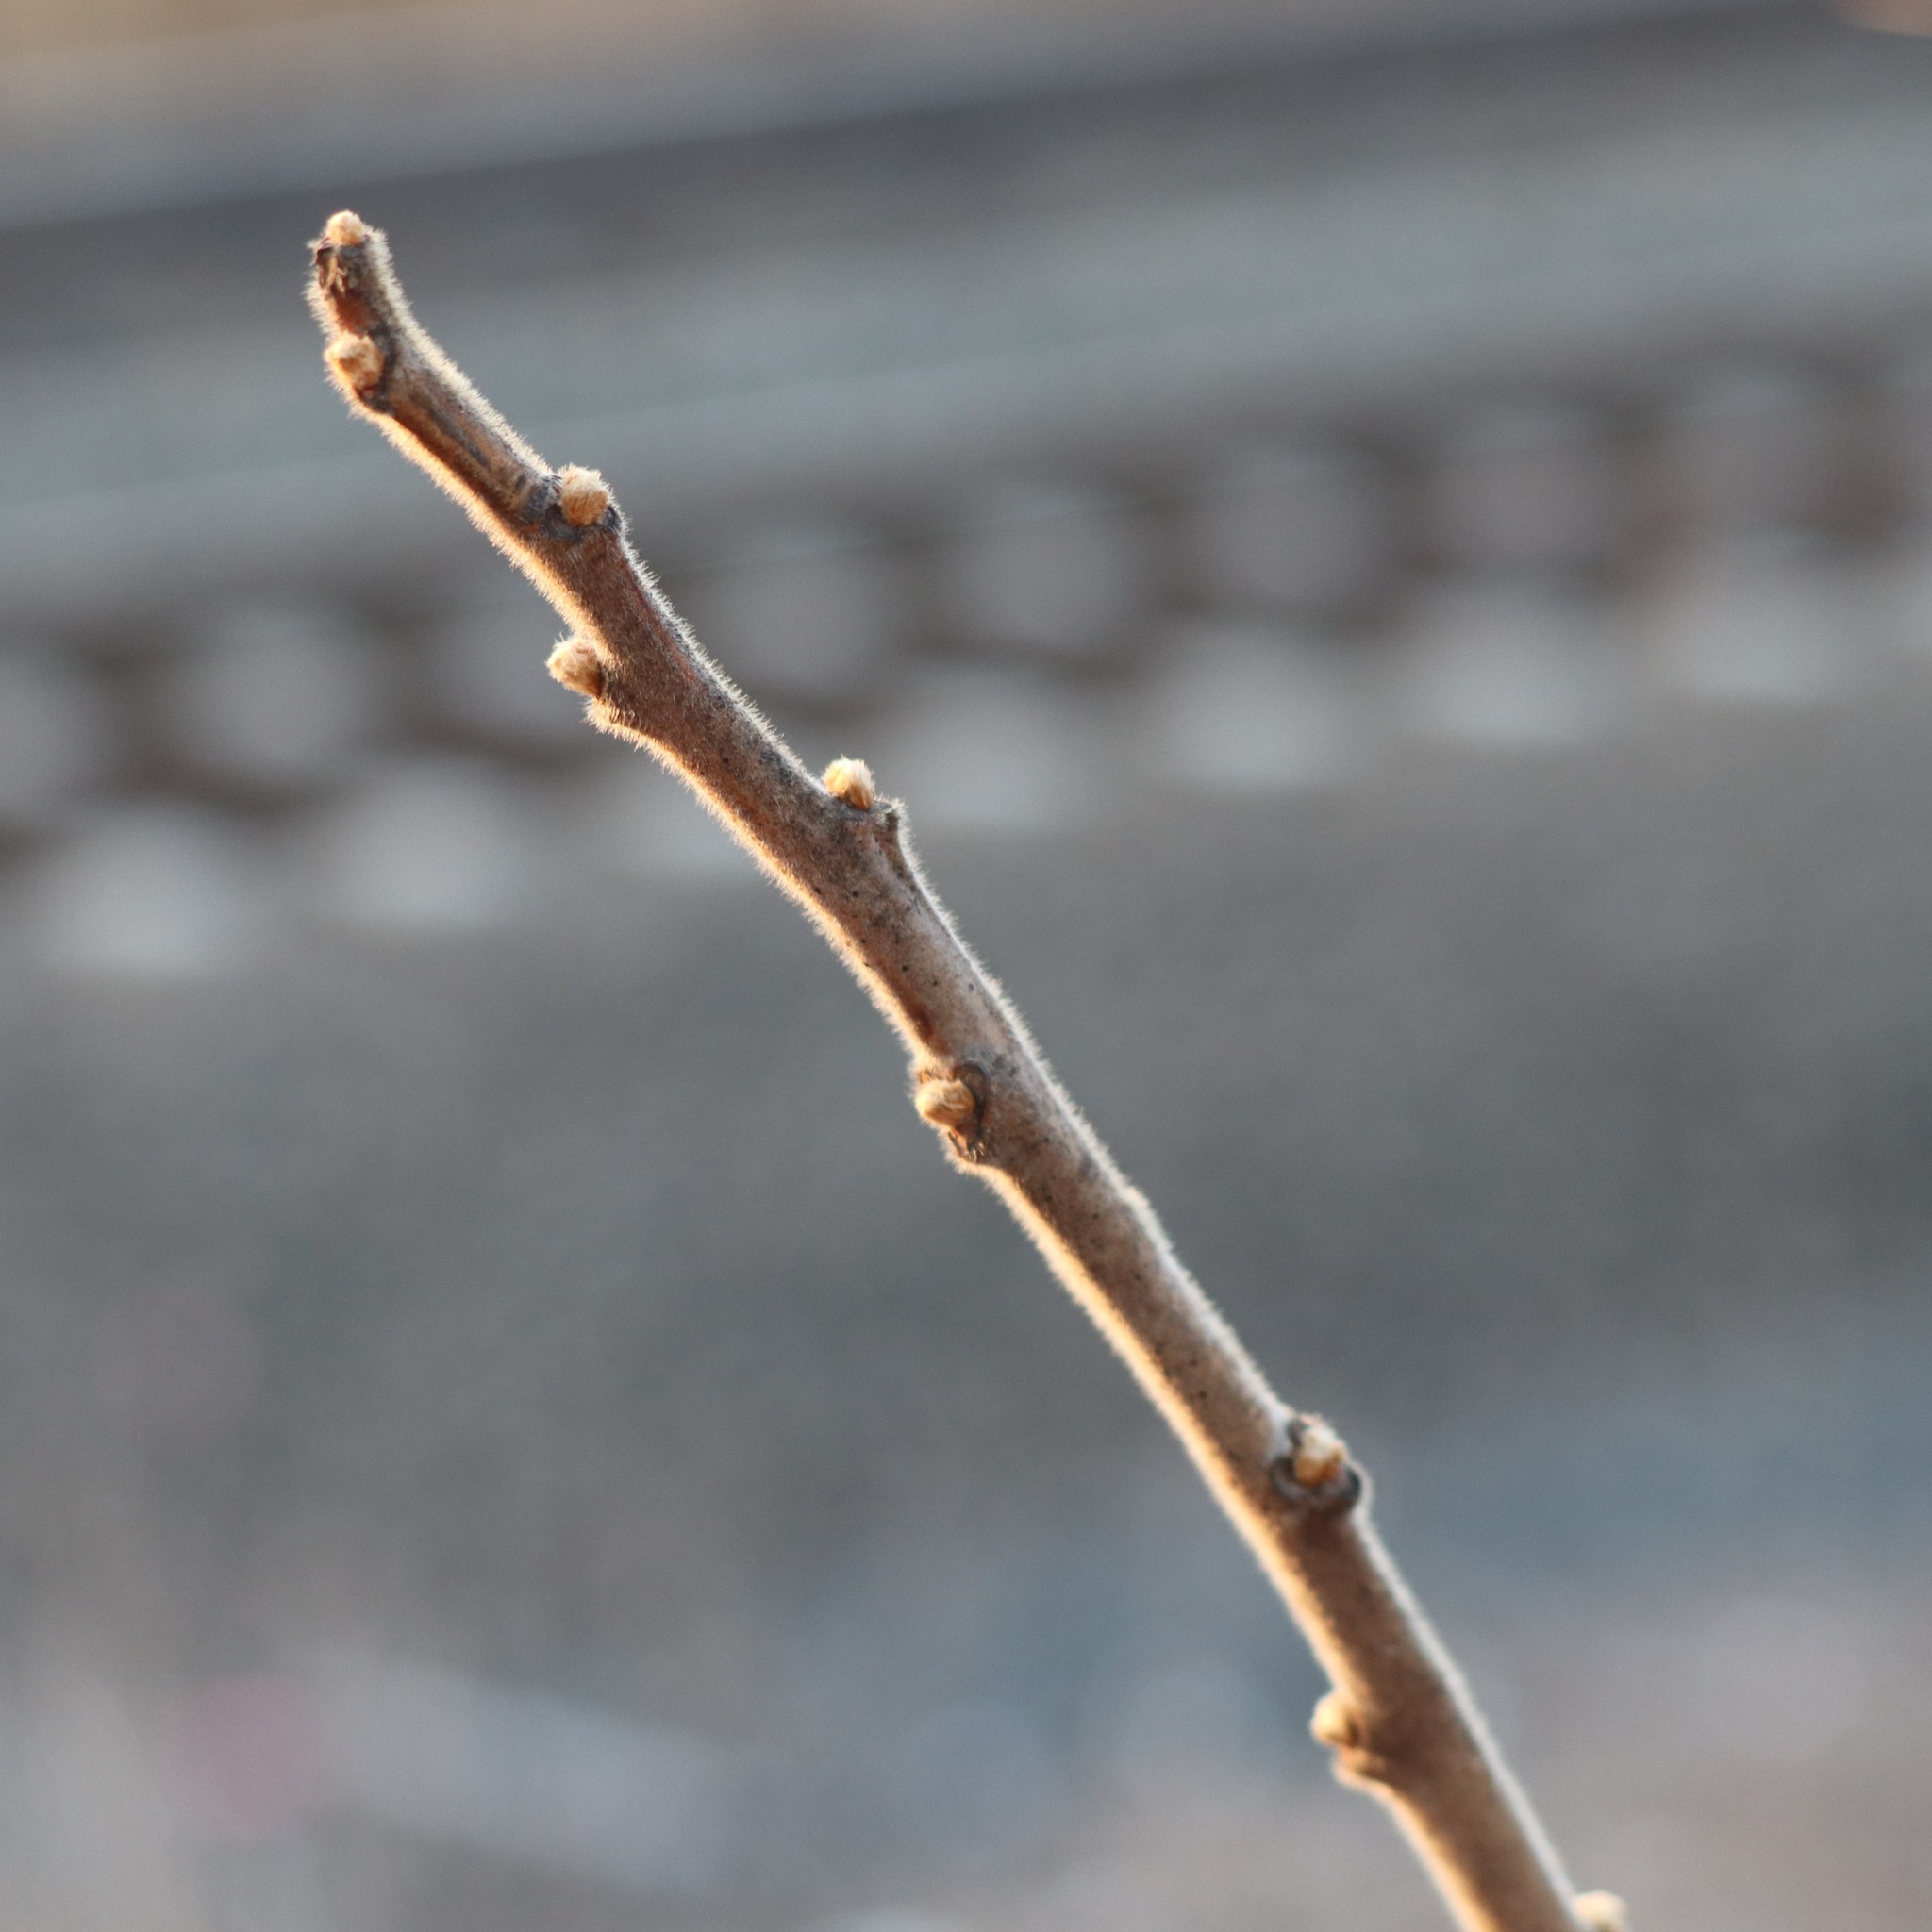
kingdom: Plantae
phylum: Tracheophyta
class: Magnoliopsida
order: Sapindales
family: Anacardiaceae
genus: Rhus
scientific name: Rhus typhina
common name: Staghorn sumac
